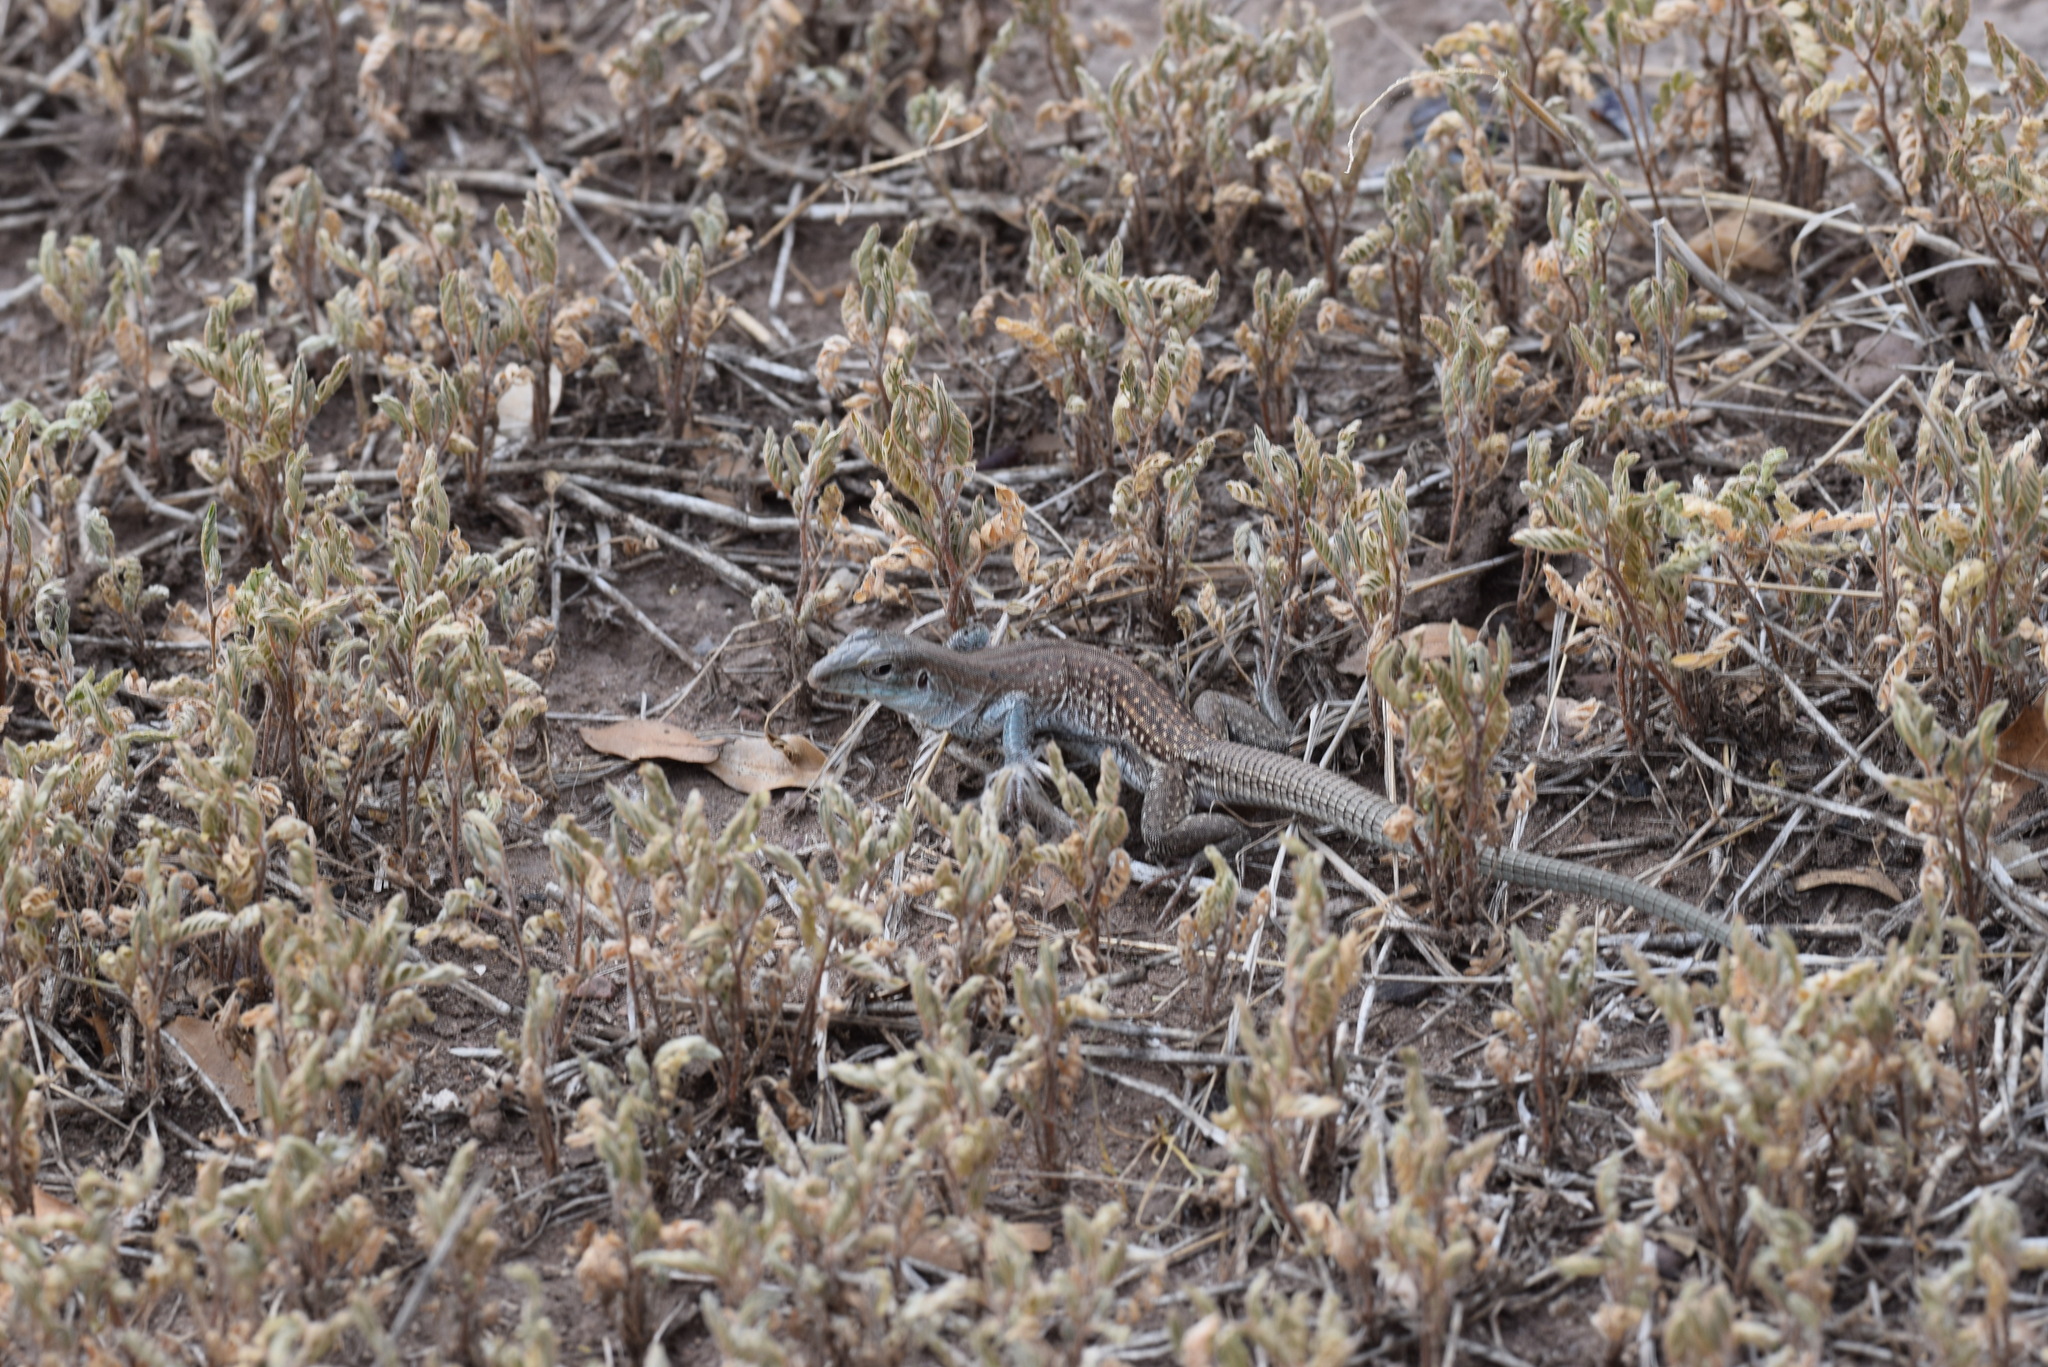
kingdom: Animalia
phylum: Chordata
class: Squamata
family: Teiidae
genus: Aspidoscelis
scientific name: Aspidoscelis exsanguis
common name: Chihuahuan spotted whiptail
